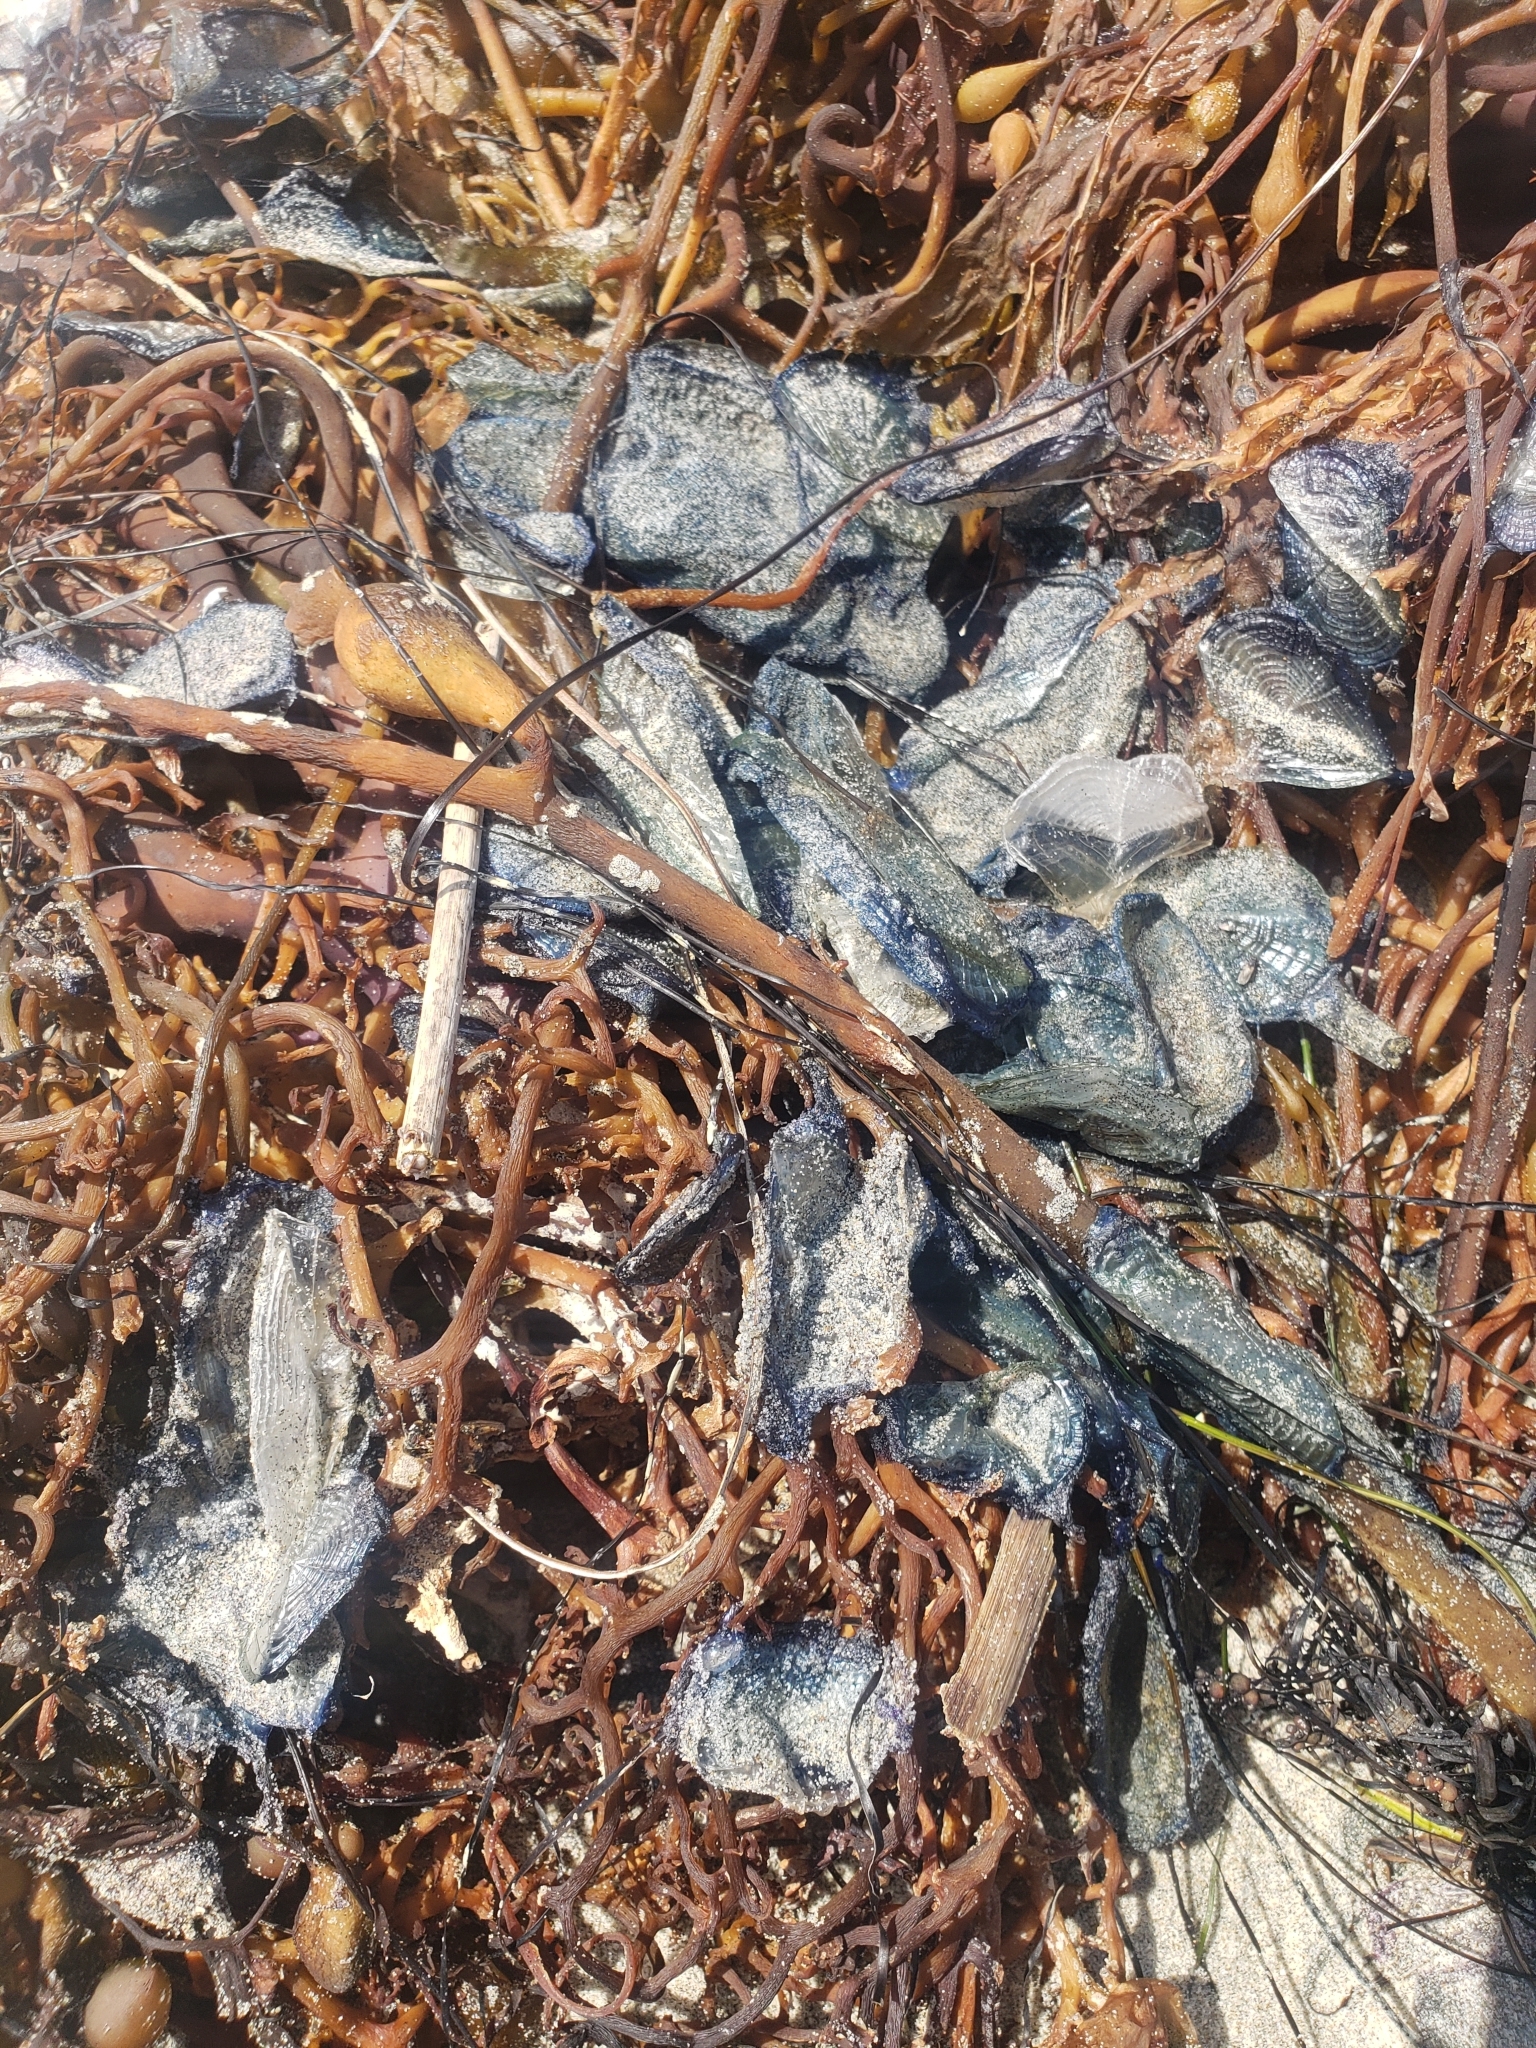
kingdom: Animalia
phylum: Cnidaria
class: Hydrozoa
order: Anthoathecata
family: Porpitidae
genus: Velella
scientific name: Velella velella
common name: By-the-wind-sailor
